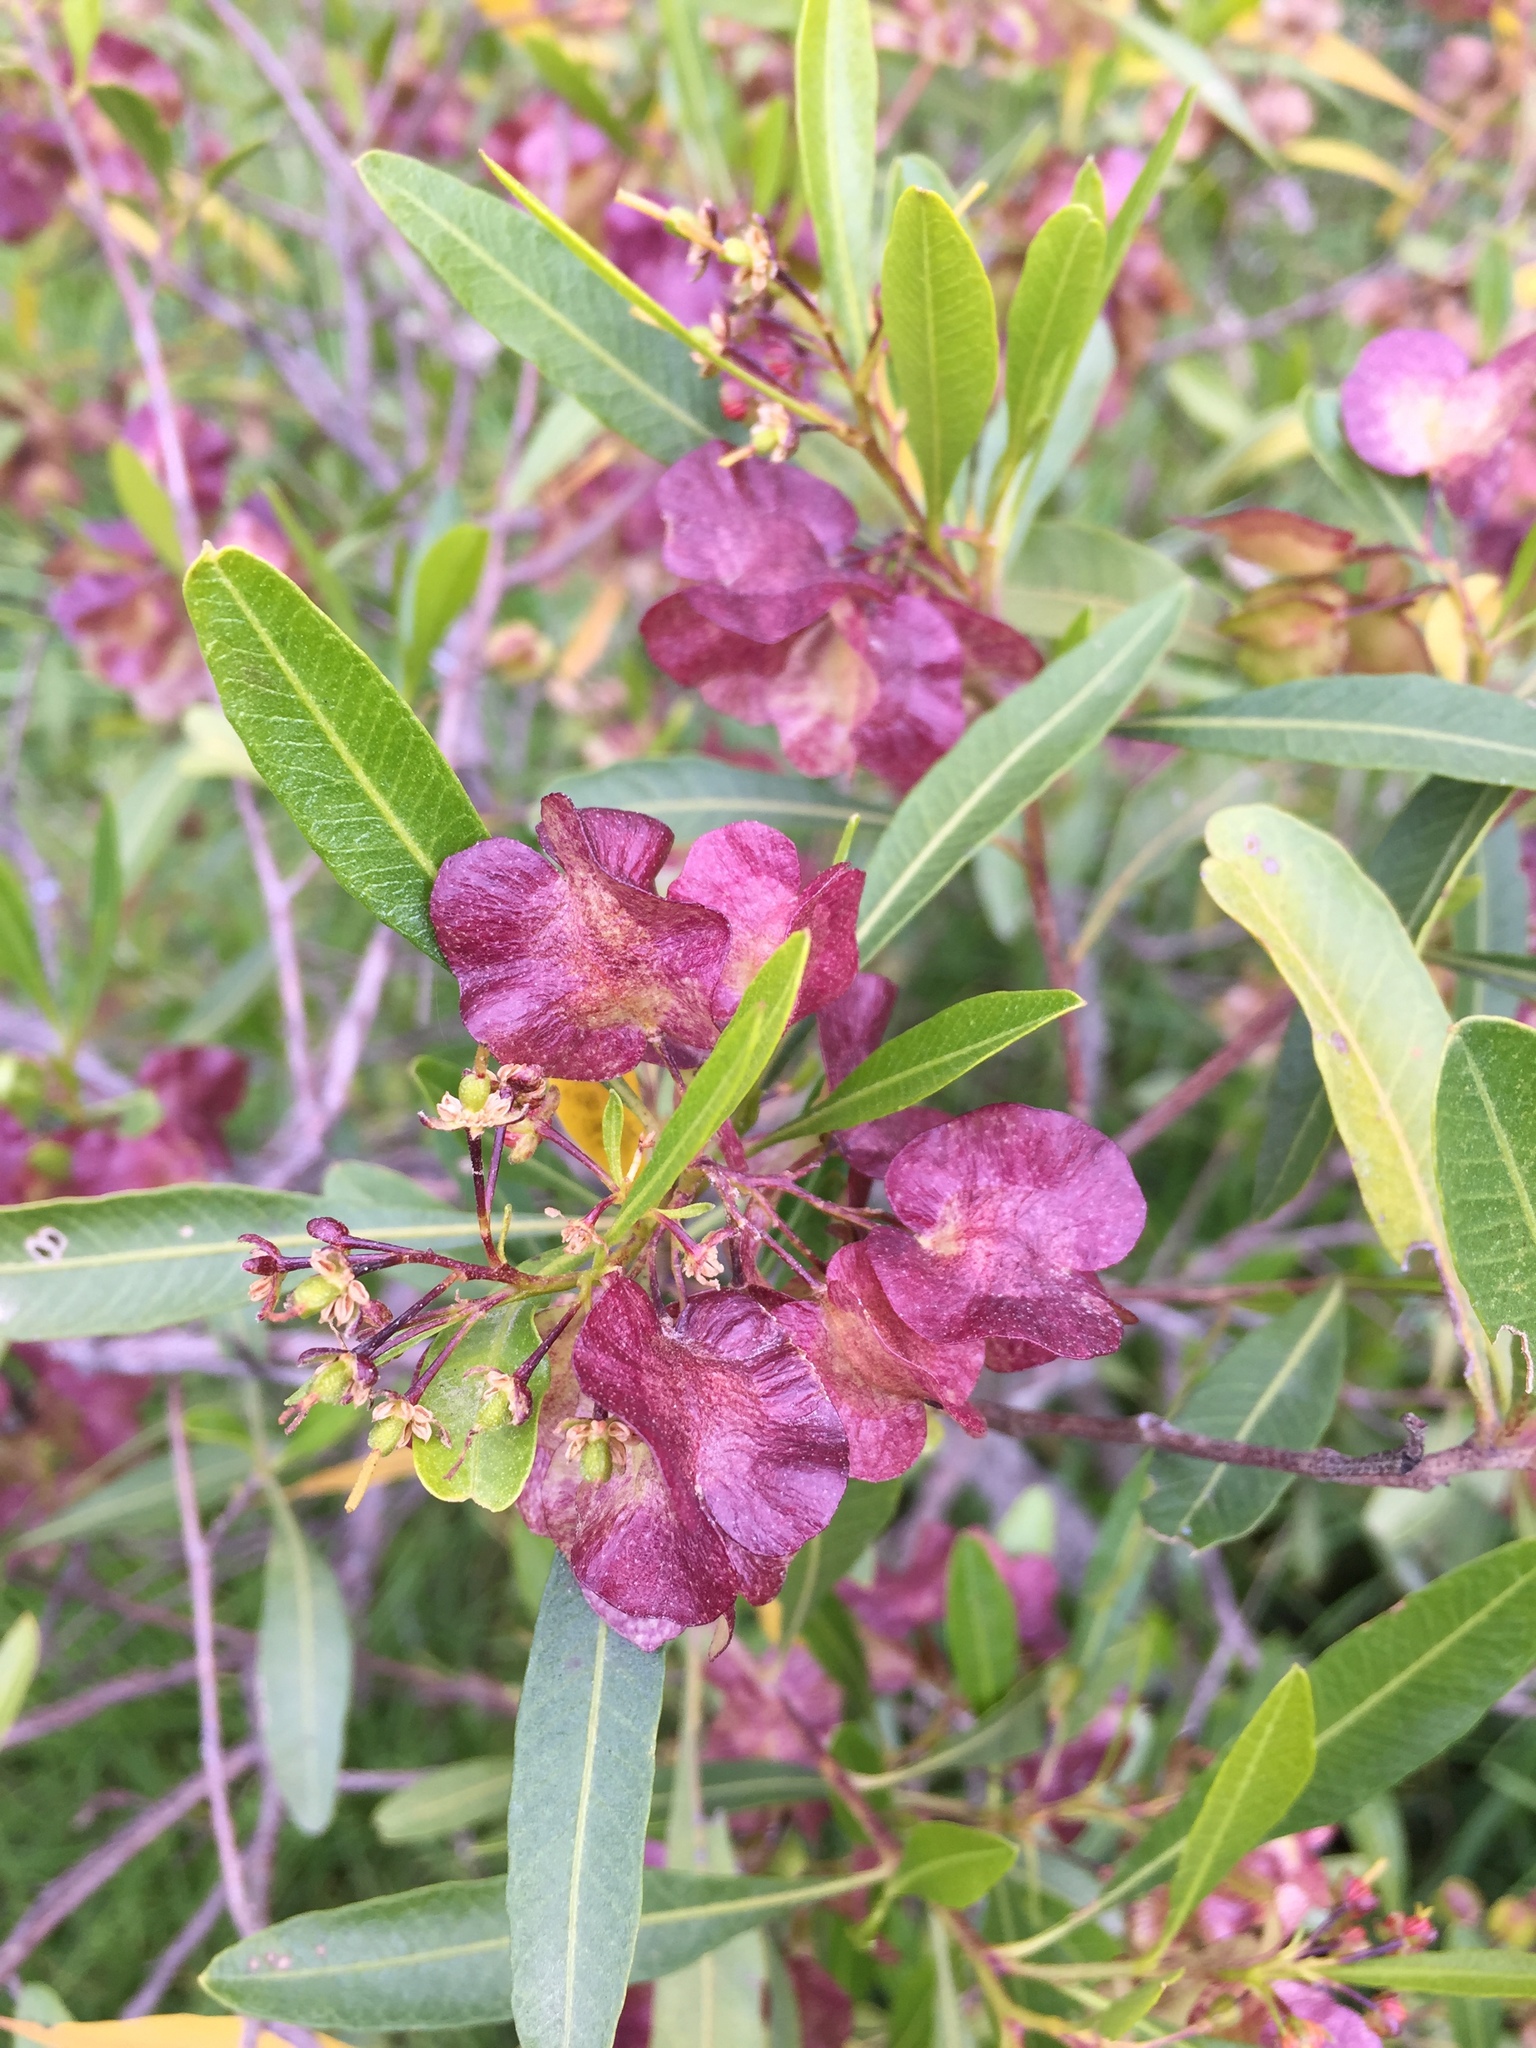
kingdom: Plantae
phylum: Tracheophyta
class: Magnoliopsida
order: Sapindales
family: Sapindaceae
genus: Dodonaea
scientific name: Dodonaea viscosa
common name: Hopbush
